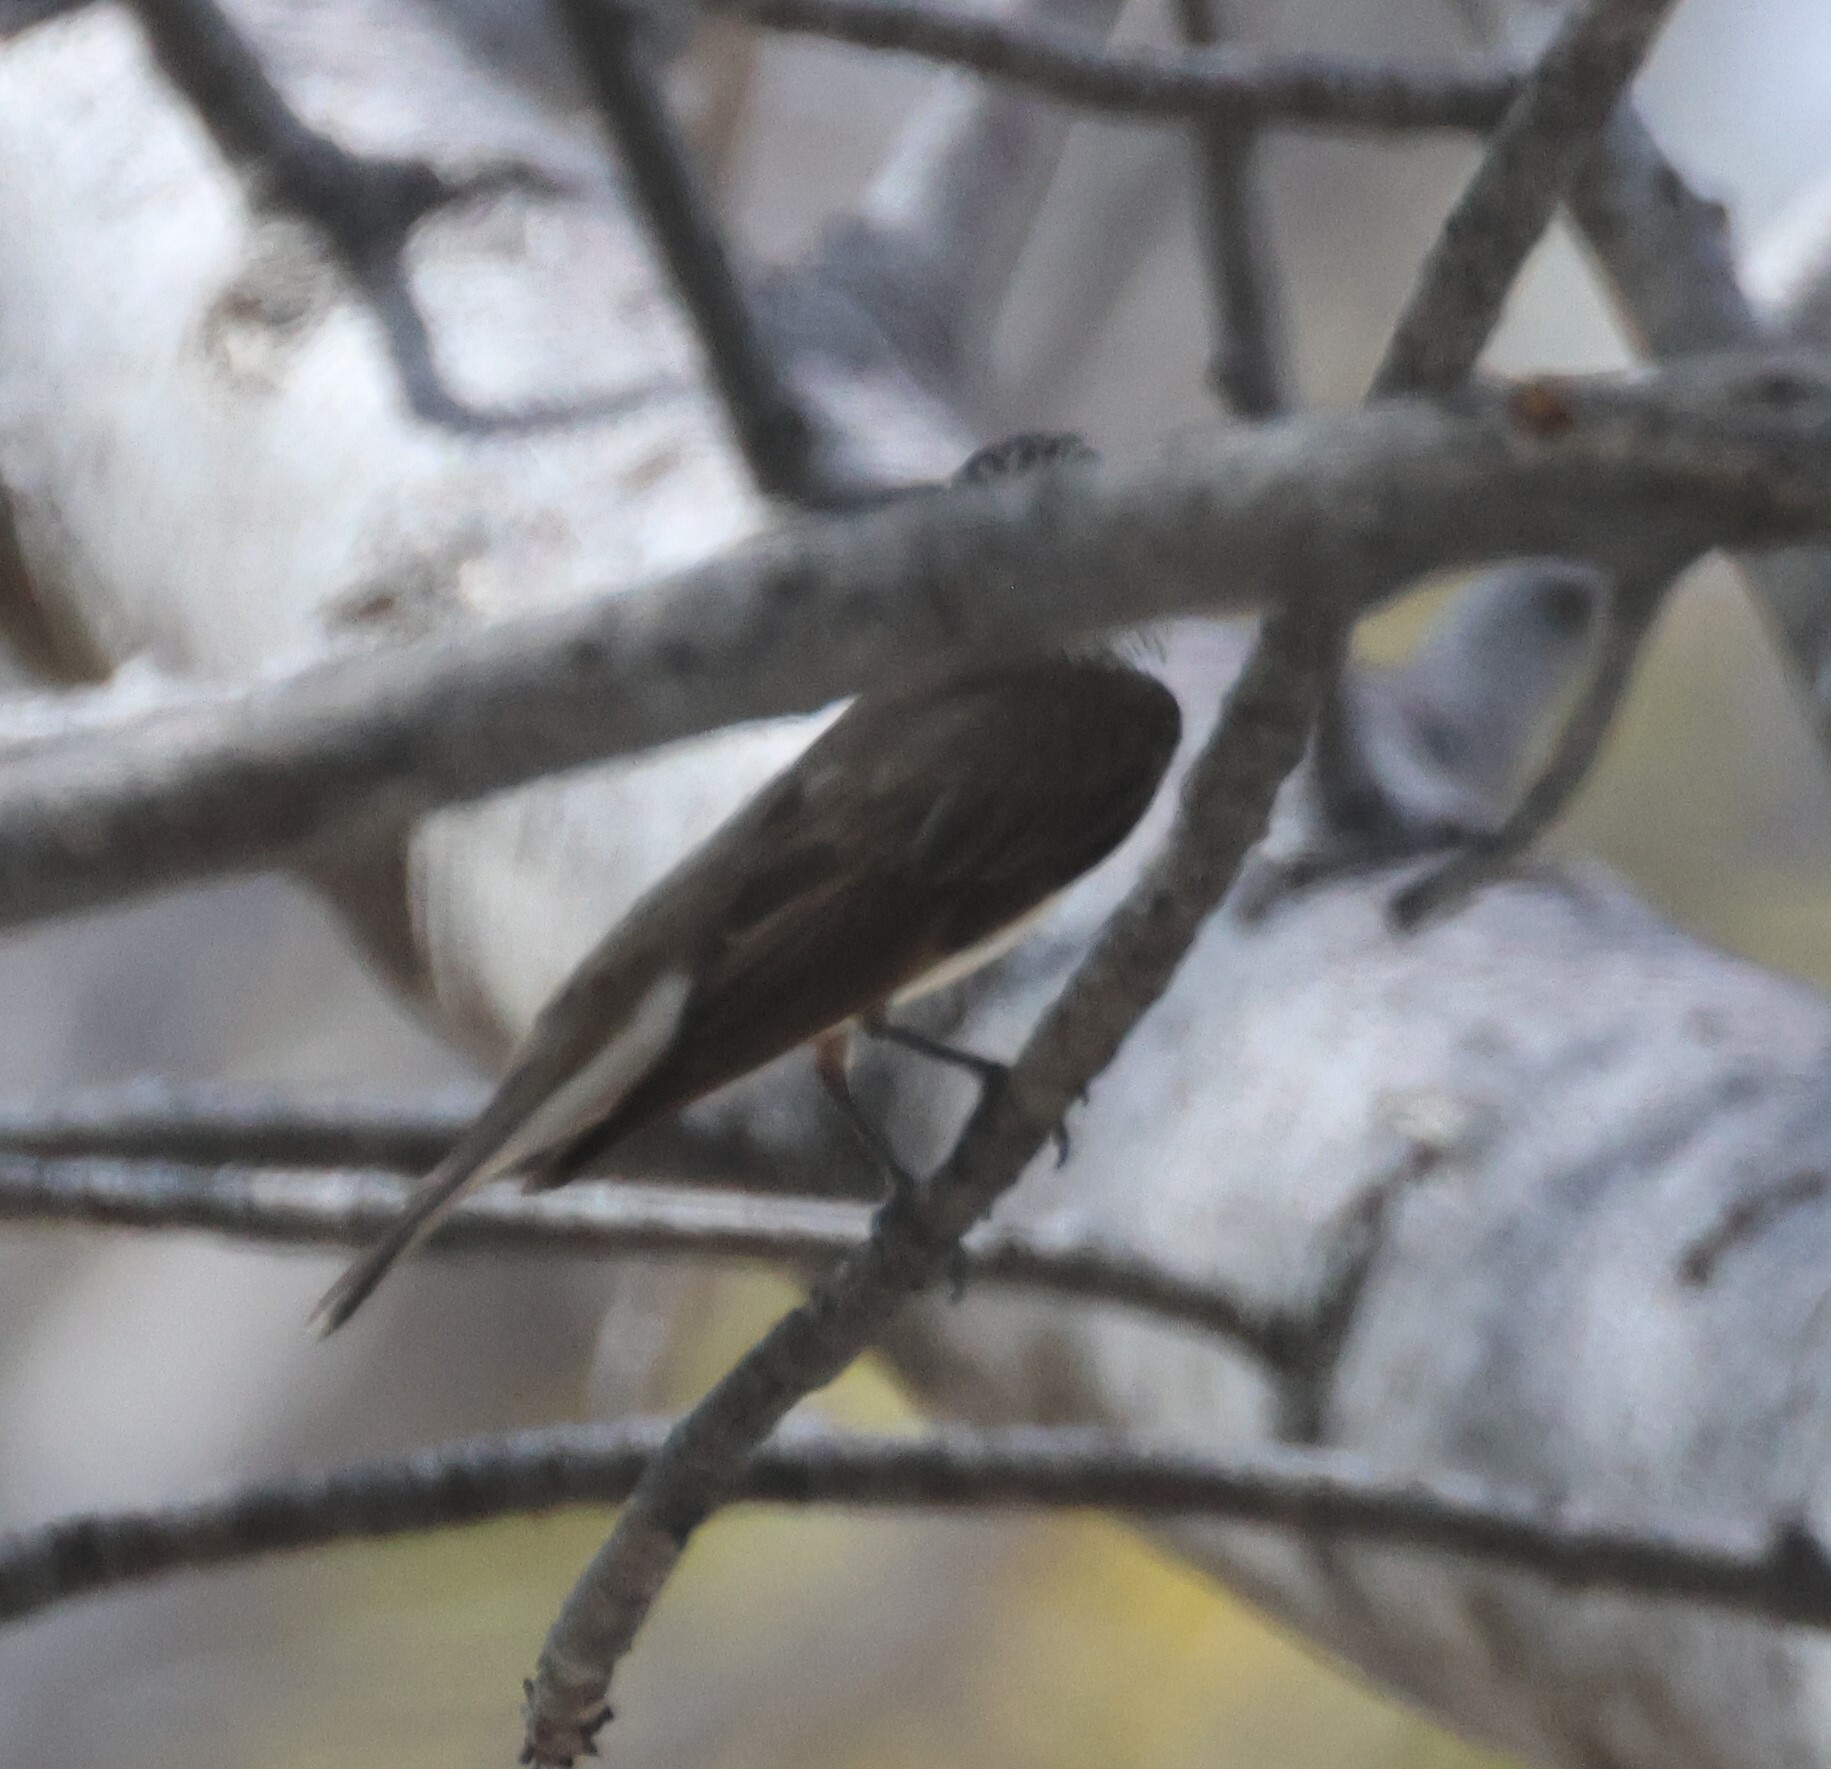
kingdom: Animalia
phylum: Chordata
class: Aves
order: Passeriformes
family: Muscicapidae
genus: Muscicapa
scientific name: Muscicapa striata
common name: Spotted flycatcher
